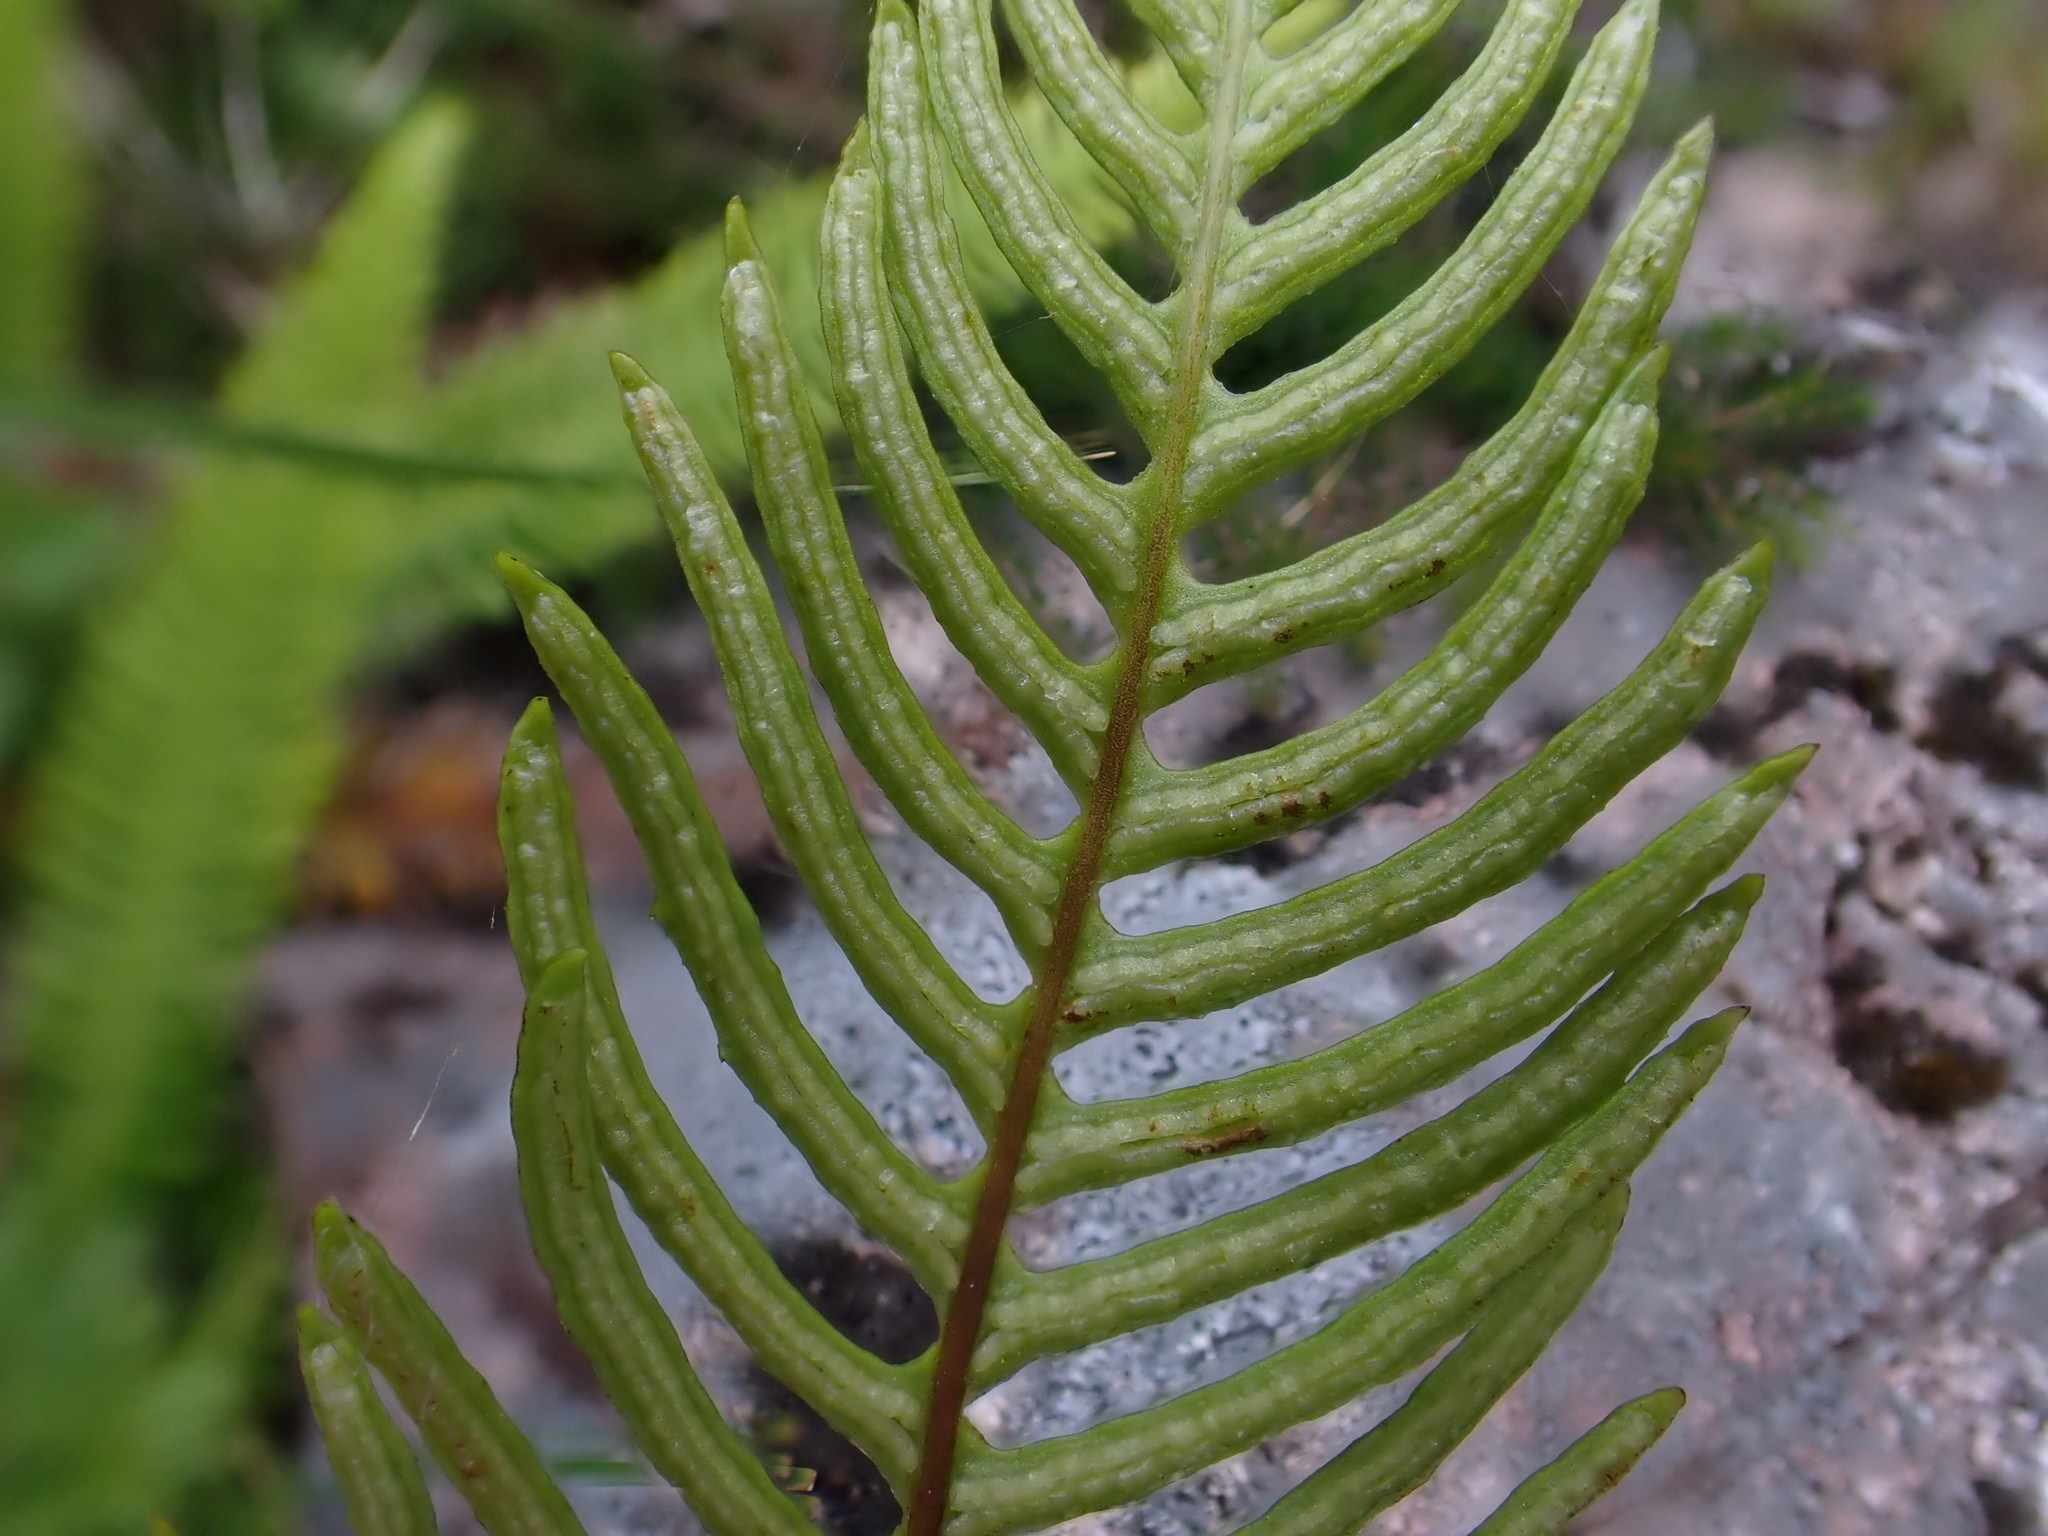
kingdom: Plantae
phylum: Tracheophyta
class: Polypodiopsida
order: Polypodiales
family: Blechnaceae
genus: Struthiopteris
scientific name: Struthiopteris spicant
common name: Deer fern
